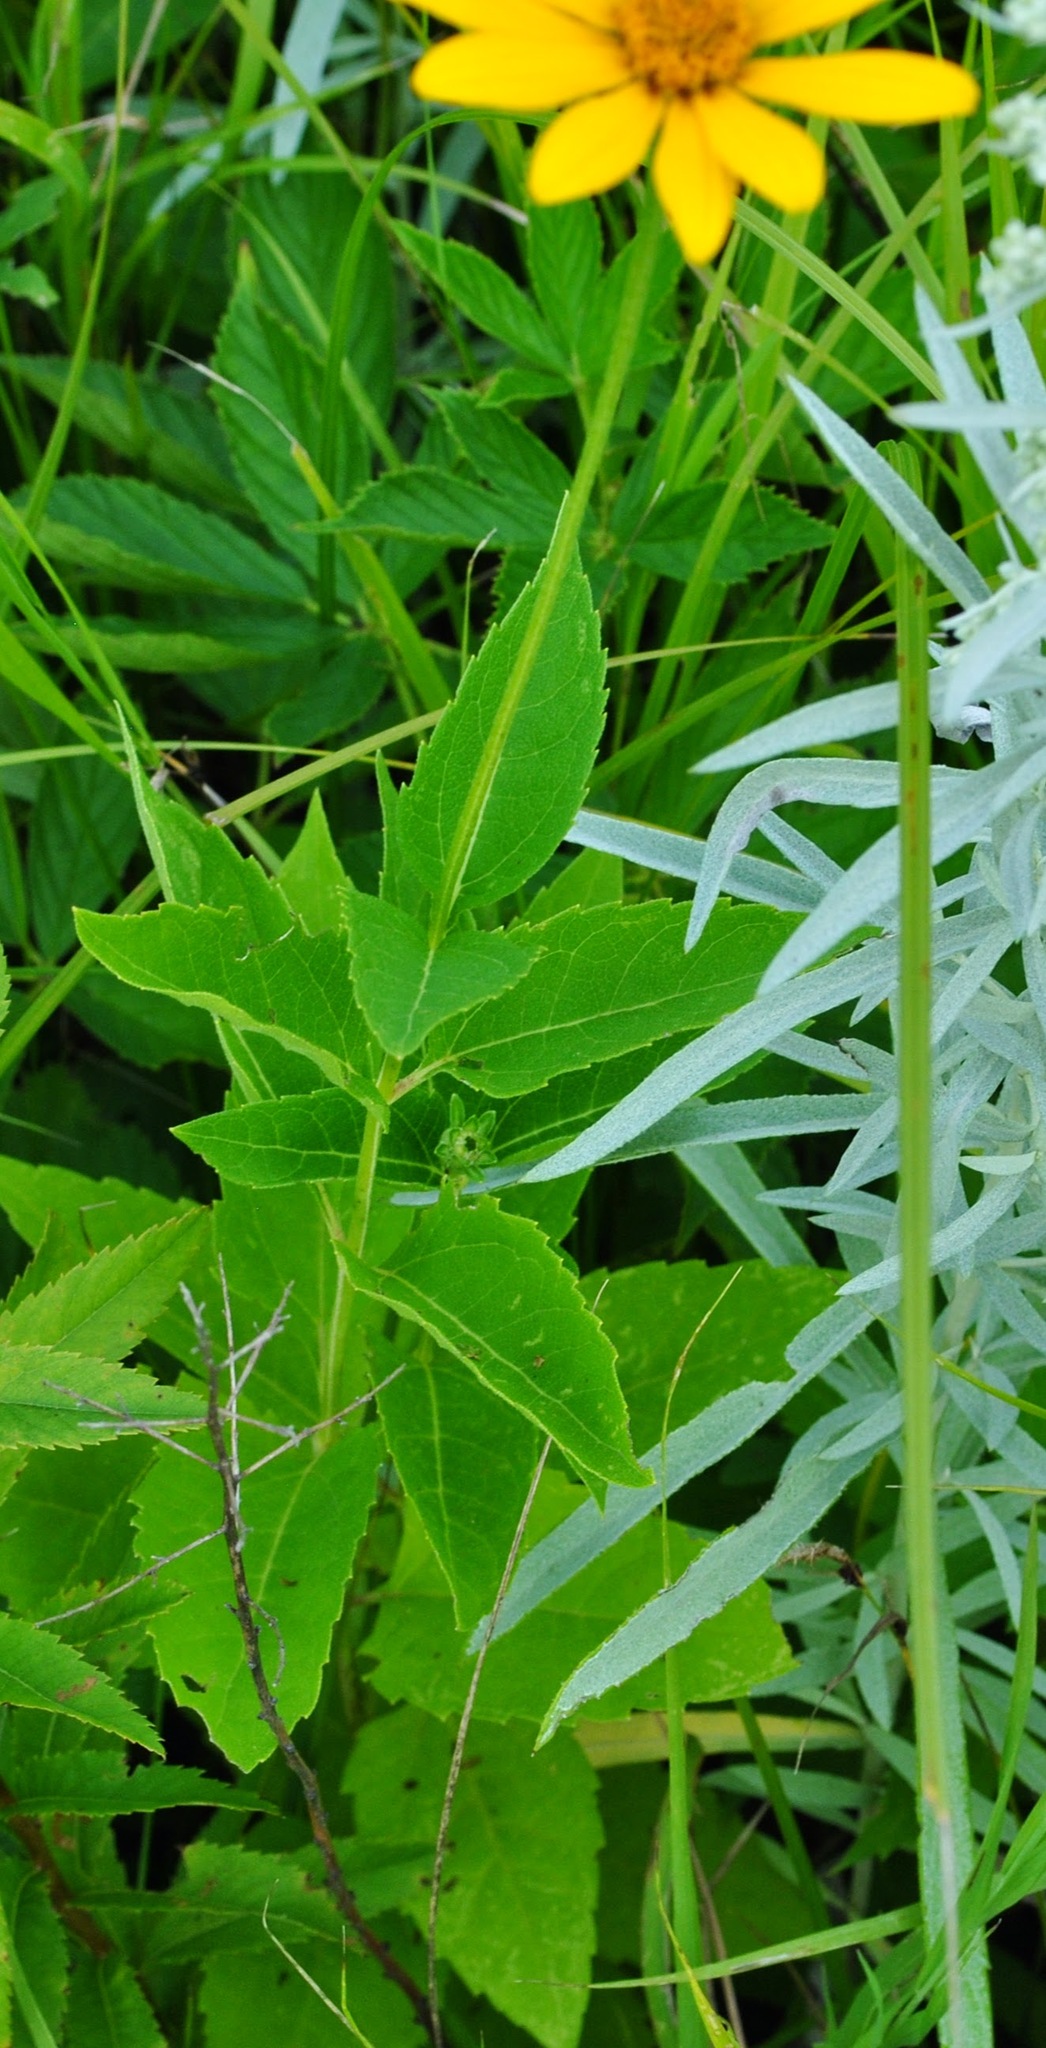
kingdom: Plantae
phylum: Tracheophyta
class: Magnoliopsida
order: Asterales
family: Asteraceae
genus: Heliopsis
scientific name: Heliopsis helianthoides
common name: False sunflower
